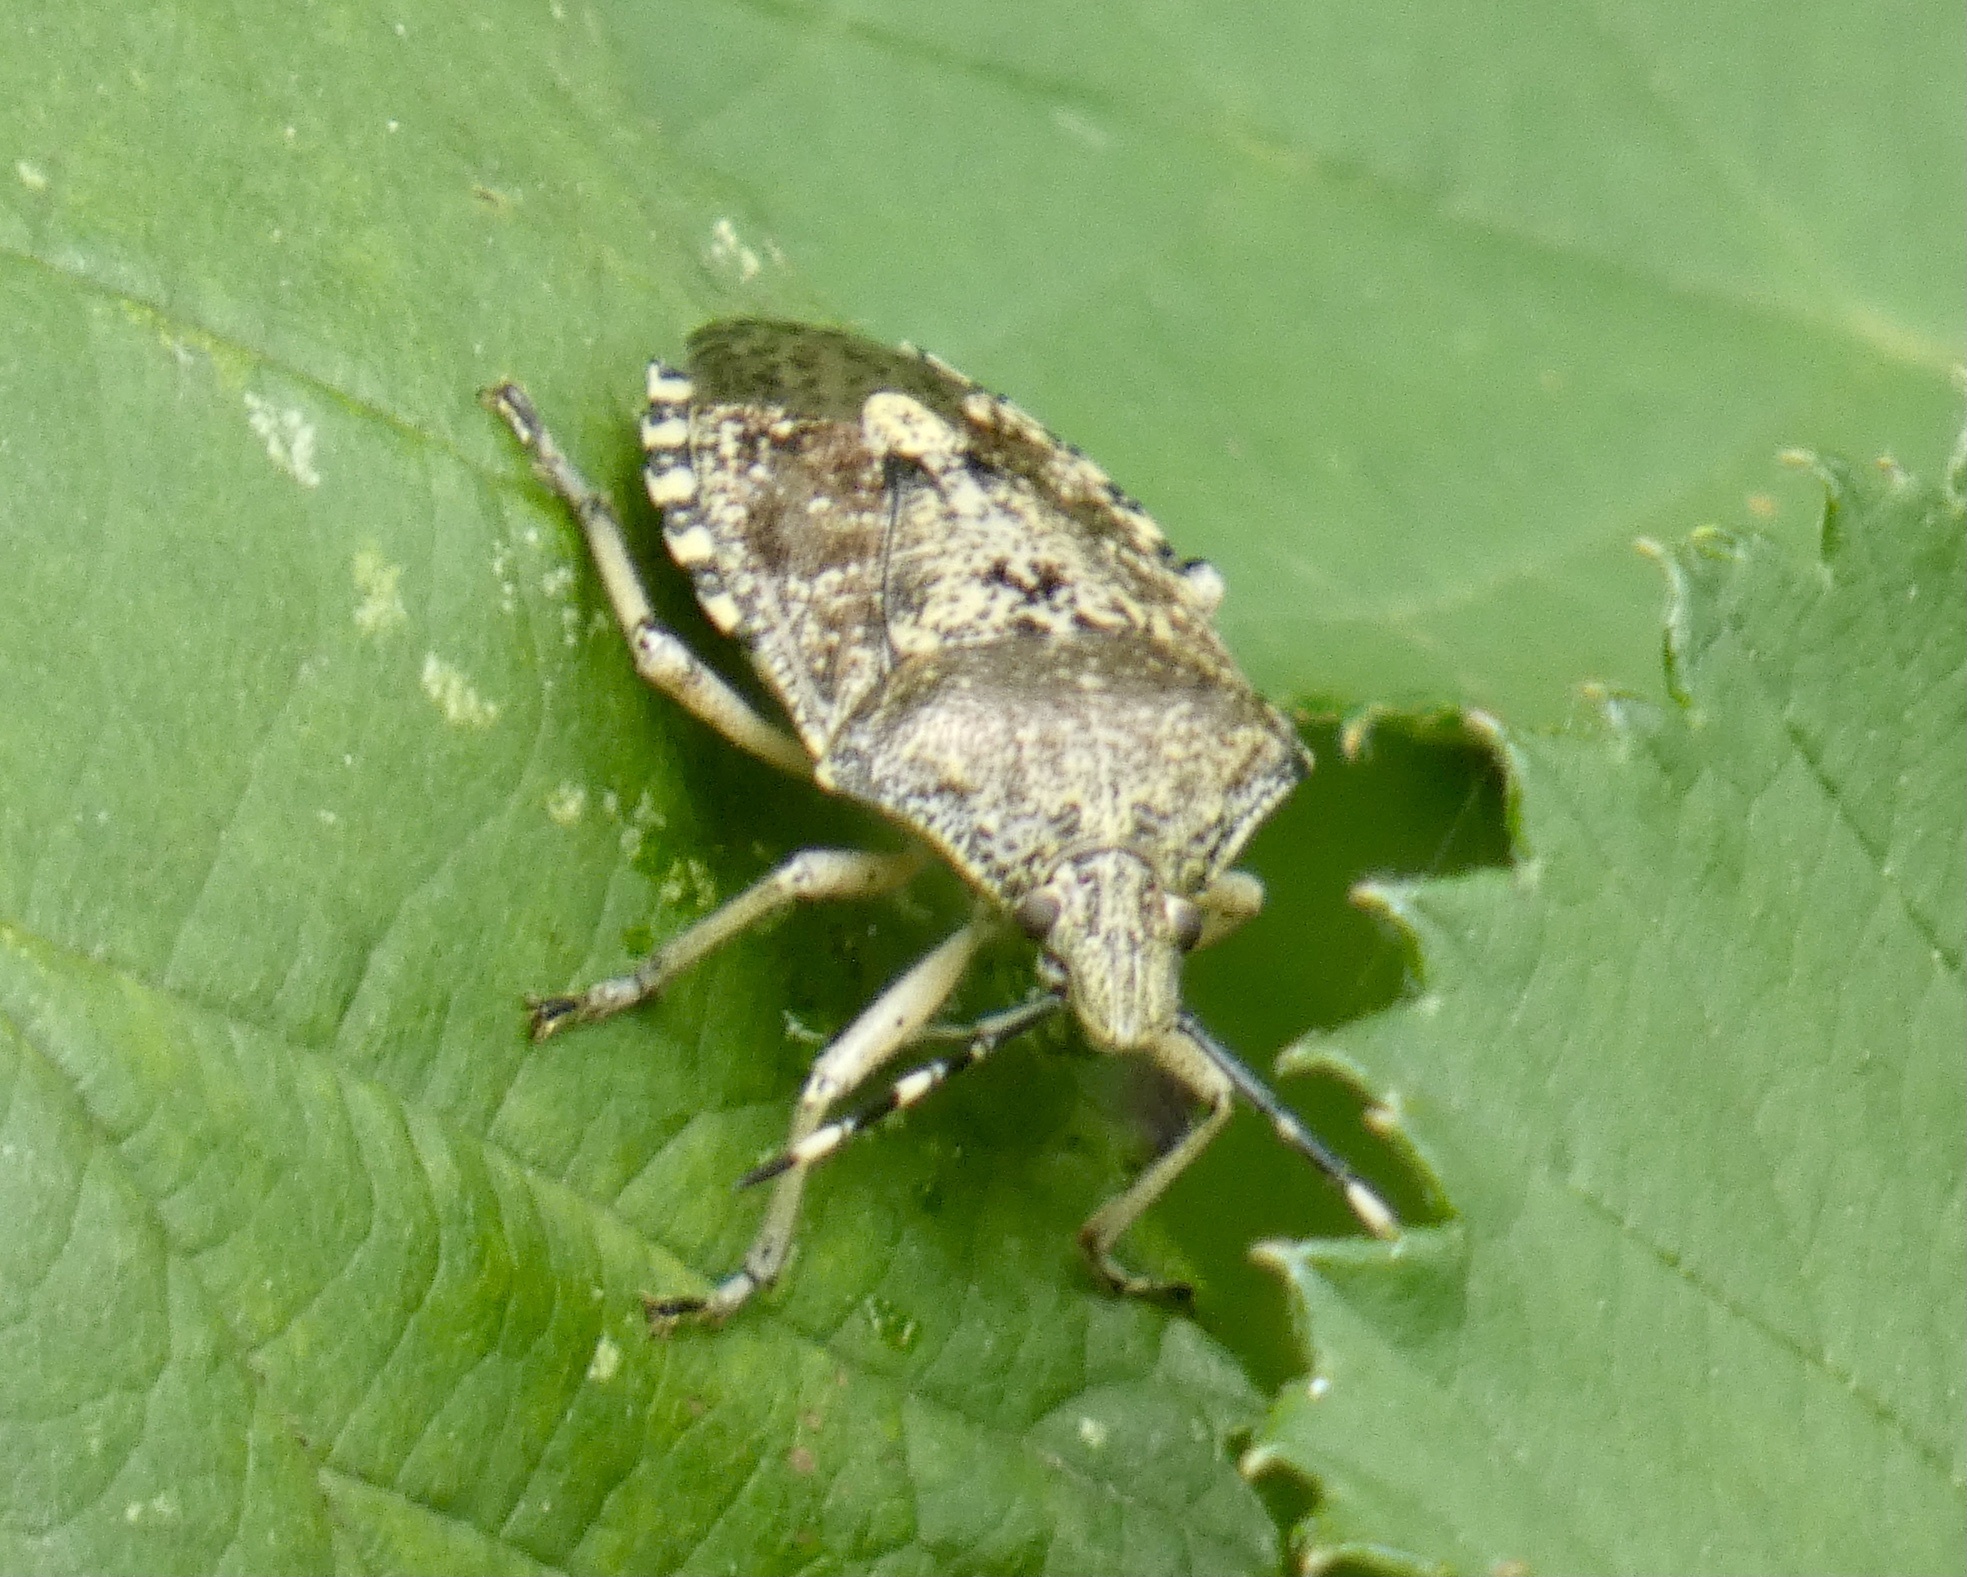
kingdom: Animalia
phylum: Arthropoda
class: Insecta
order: Hemiptera
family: Pentatomidae
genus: Rhaphigaster
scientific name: Rhaphigaster nebulosa
